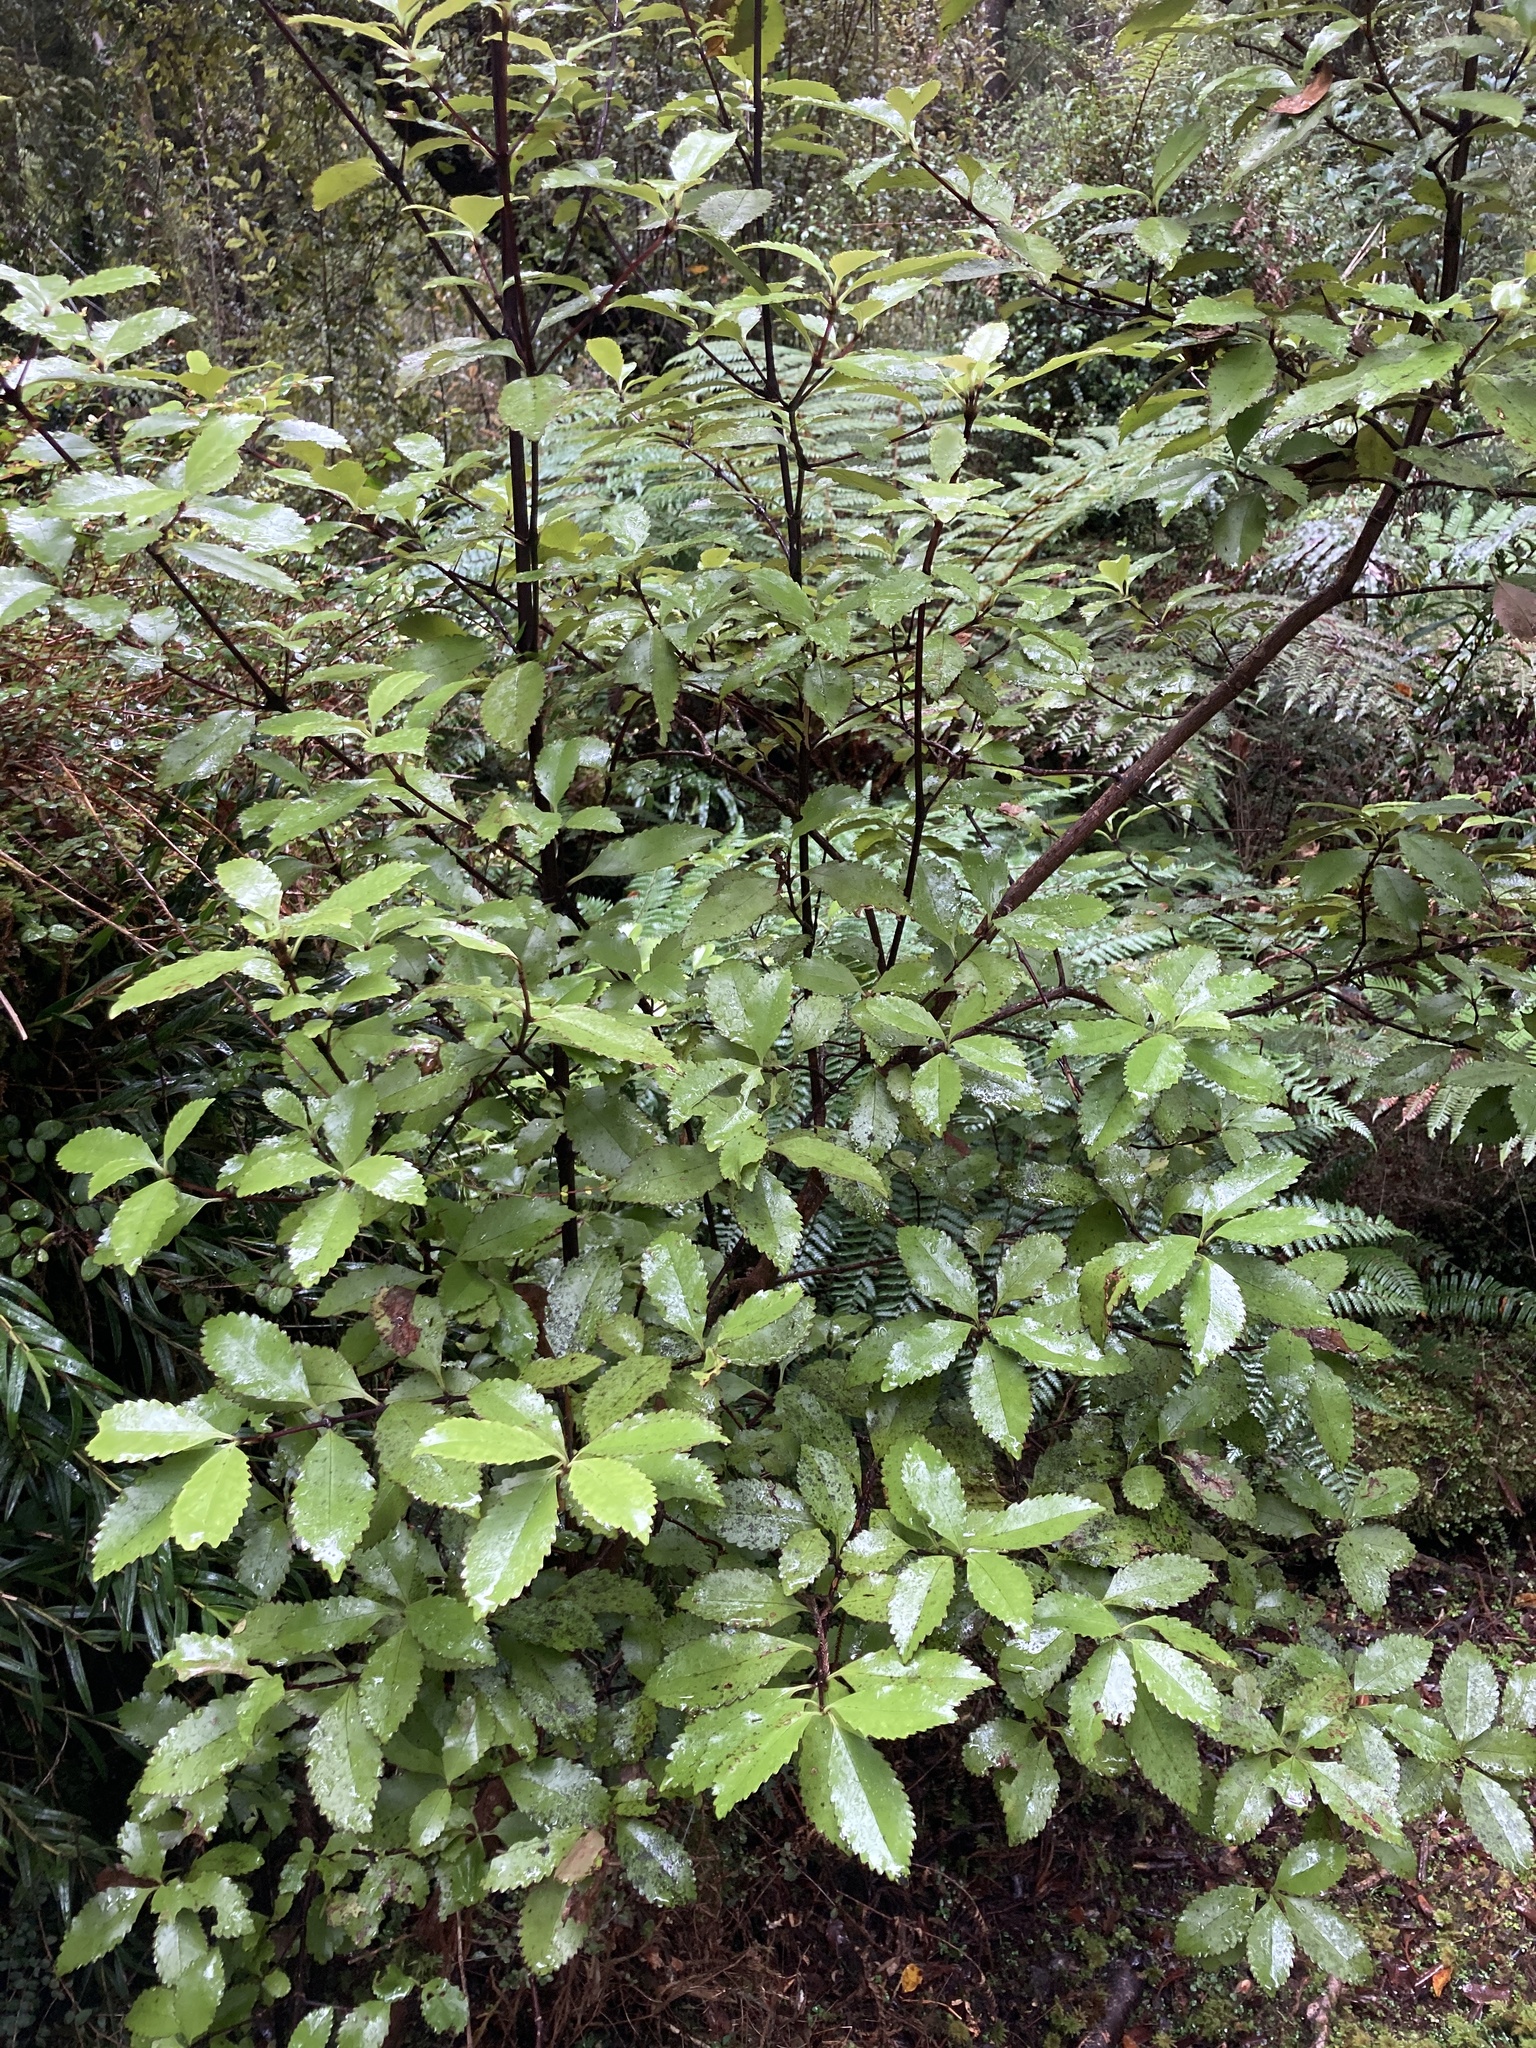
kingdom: Plantae
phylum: Tracheophyta
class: Magnoliopsida
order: Chloranthales
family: Chloranthaceae
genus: Ascarina
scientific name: Ascarina lucida
